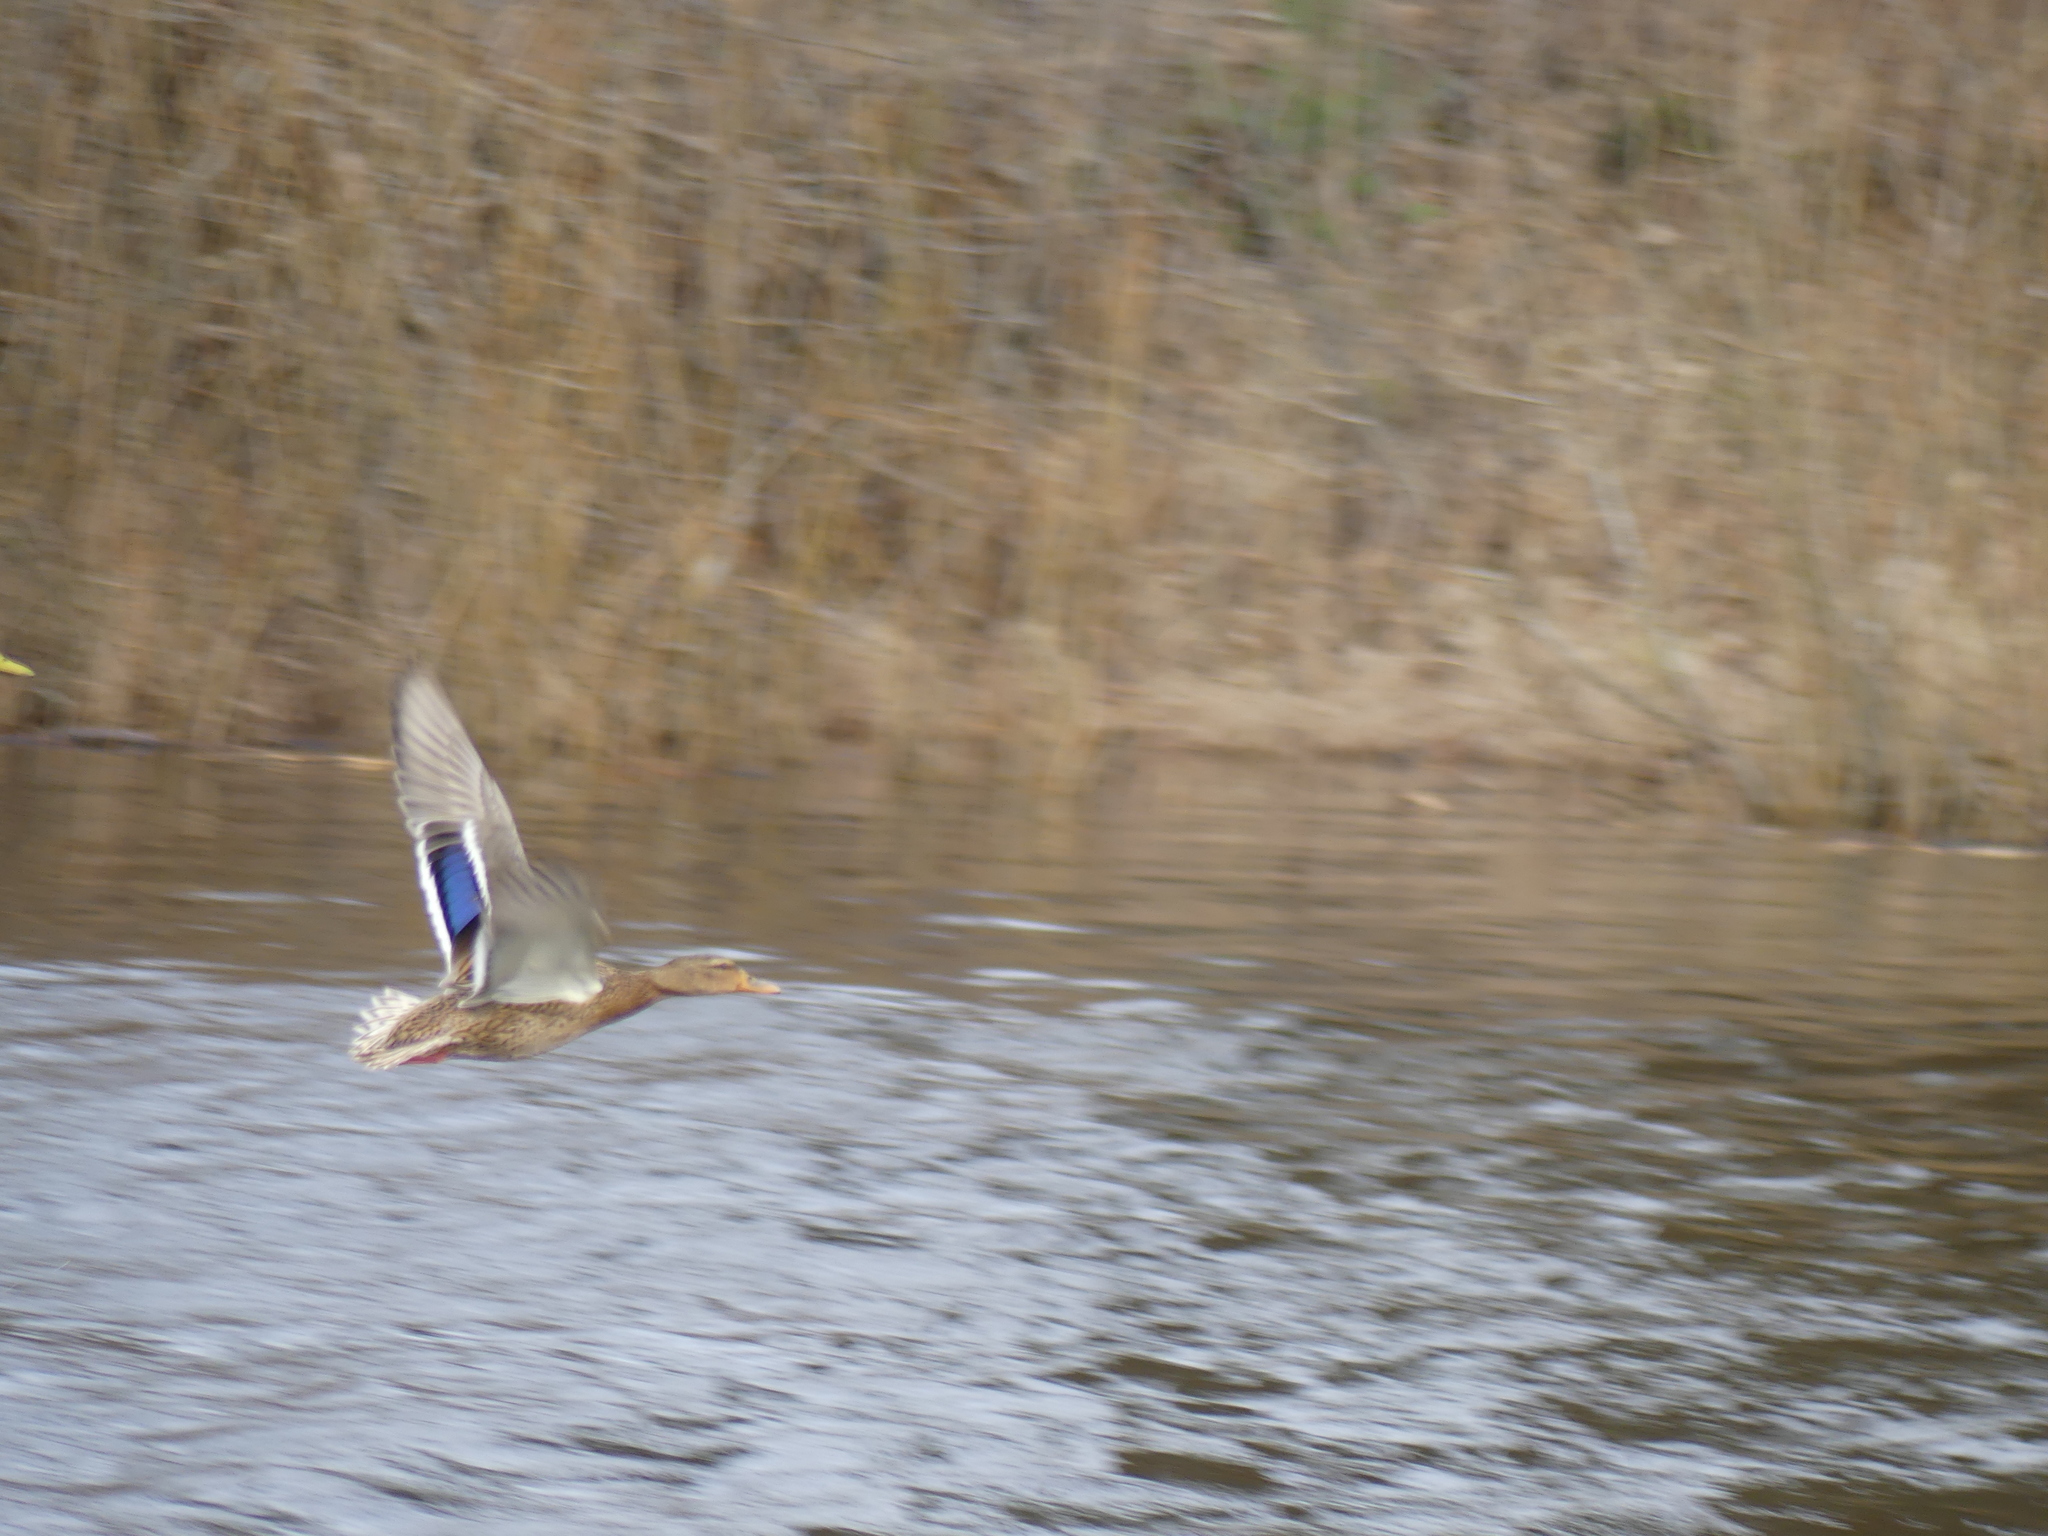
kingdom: Animalia
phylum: Chordata
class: Aves
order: Anseriformes
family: Anatidae
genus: Anas
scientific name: Anas platyrhynchos
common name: Mallard
